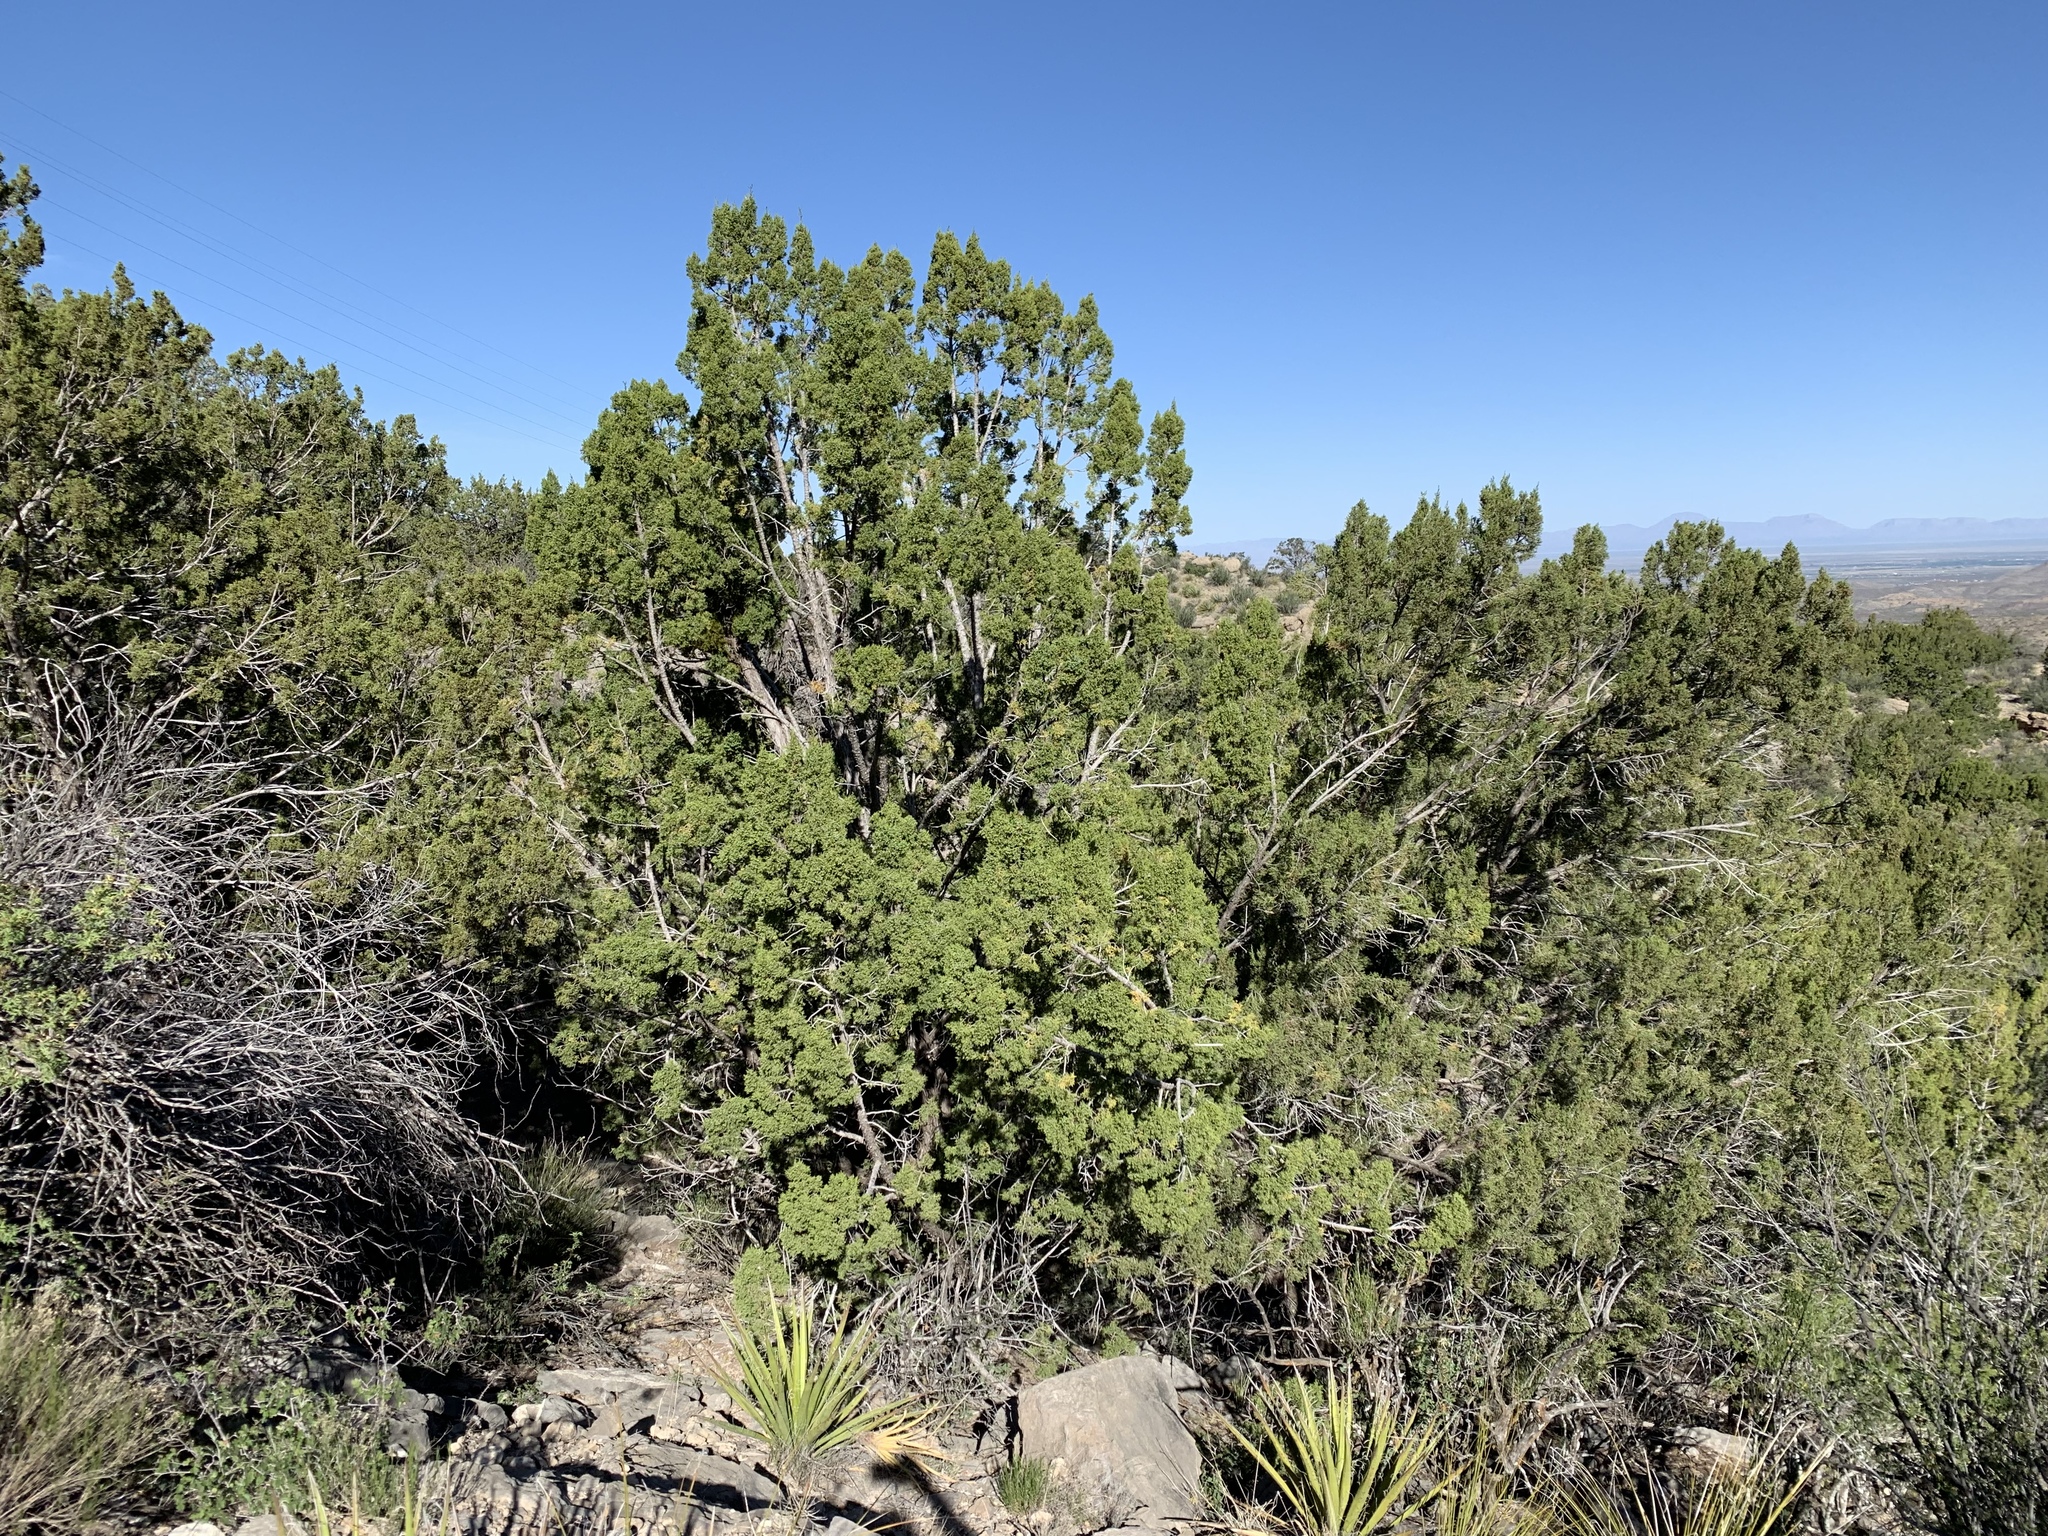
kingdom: Plantae
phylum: Tracheophyta
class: Pinopsida
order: Pinales
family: Cupressaceae
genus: Juniperus
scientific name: Juniperus monosperma
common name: One-seed juniper
